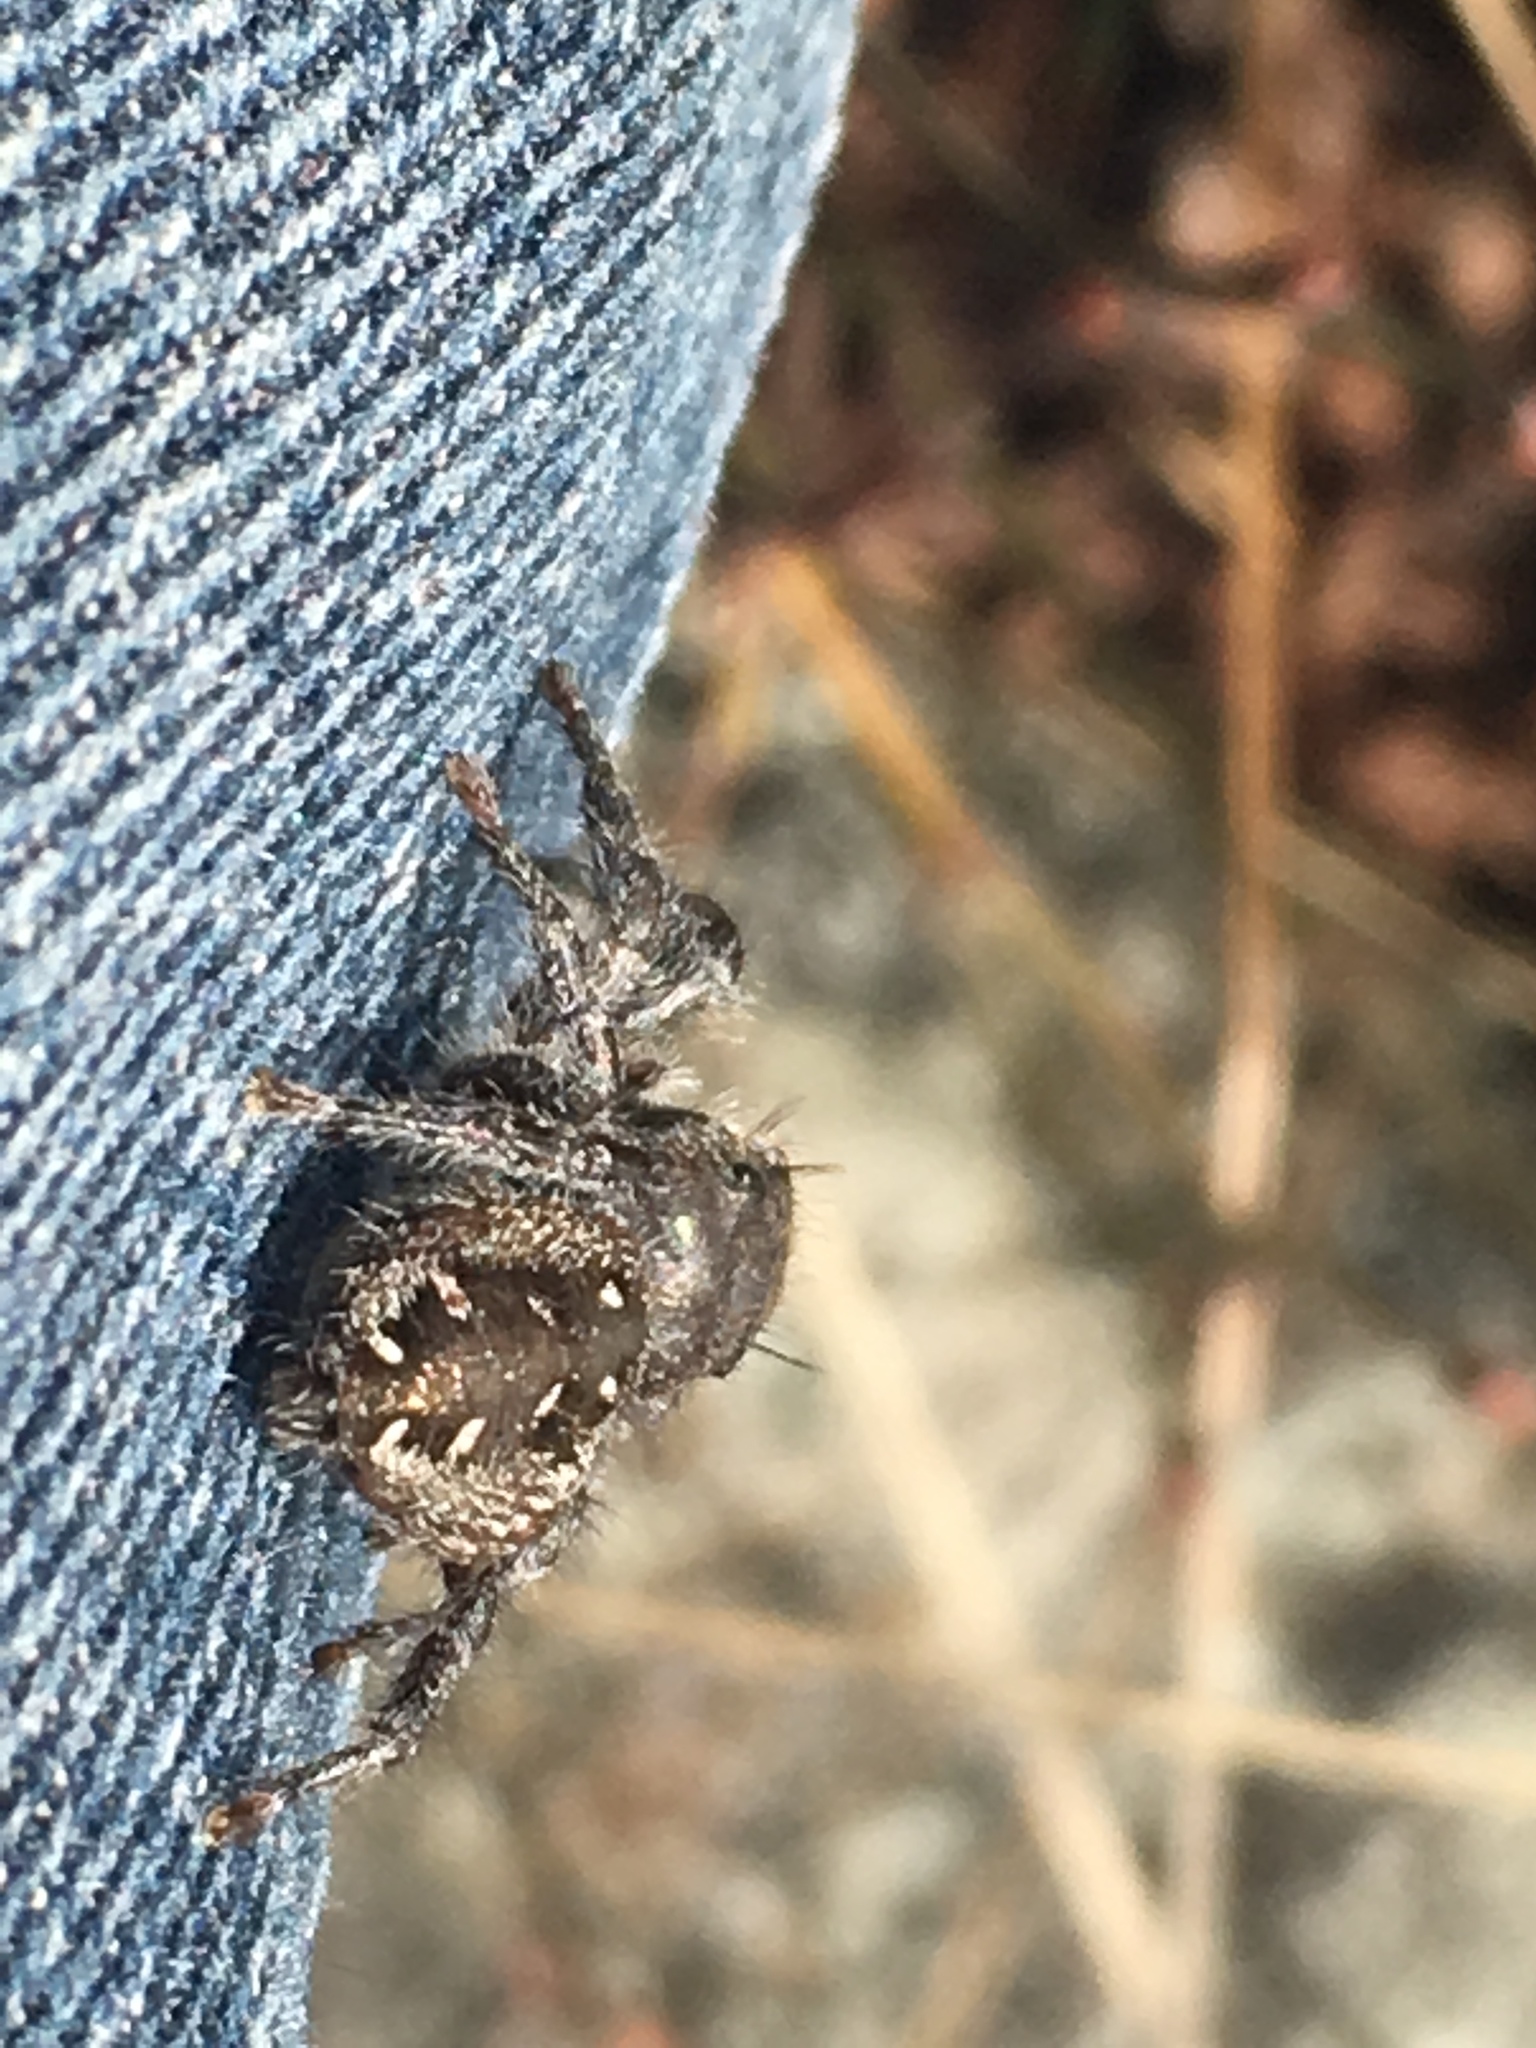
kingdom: Animalia
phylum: Arthropoda
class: Arachnida
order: Araneae
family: Salticidae
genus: Phidippus
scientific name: Phidippus purpuratus
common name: Marbled purple jumping spider
